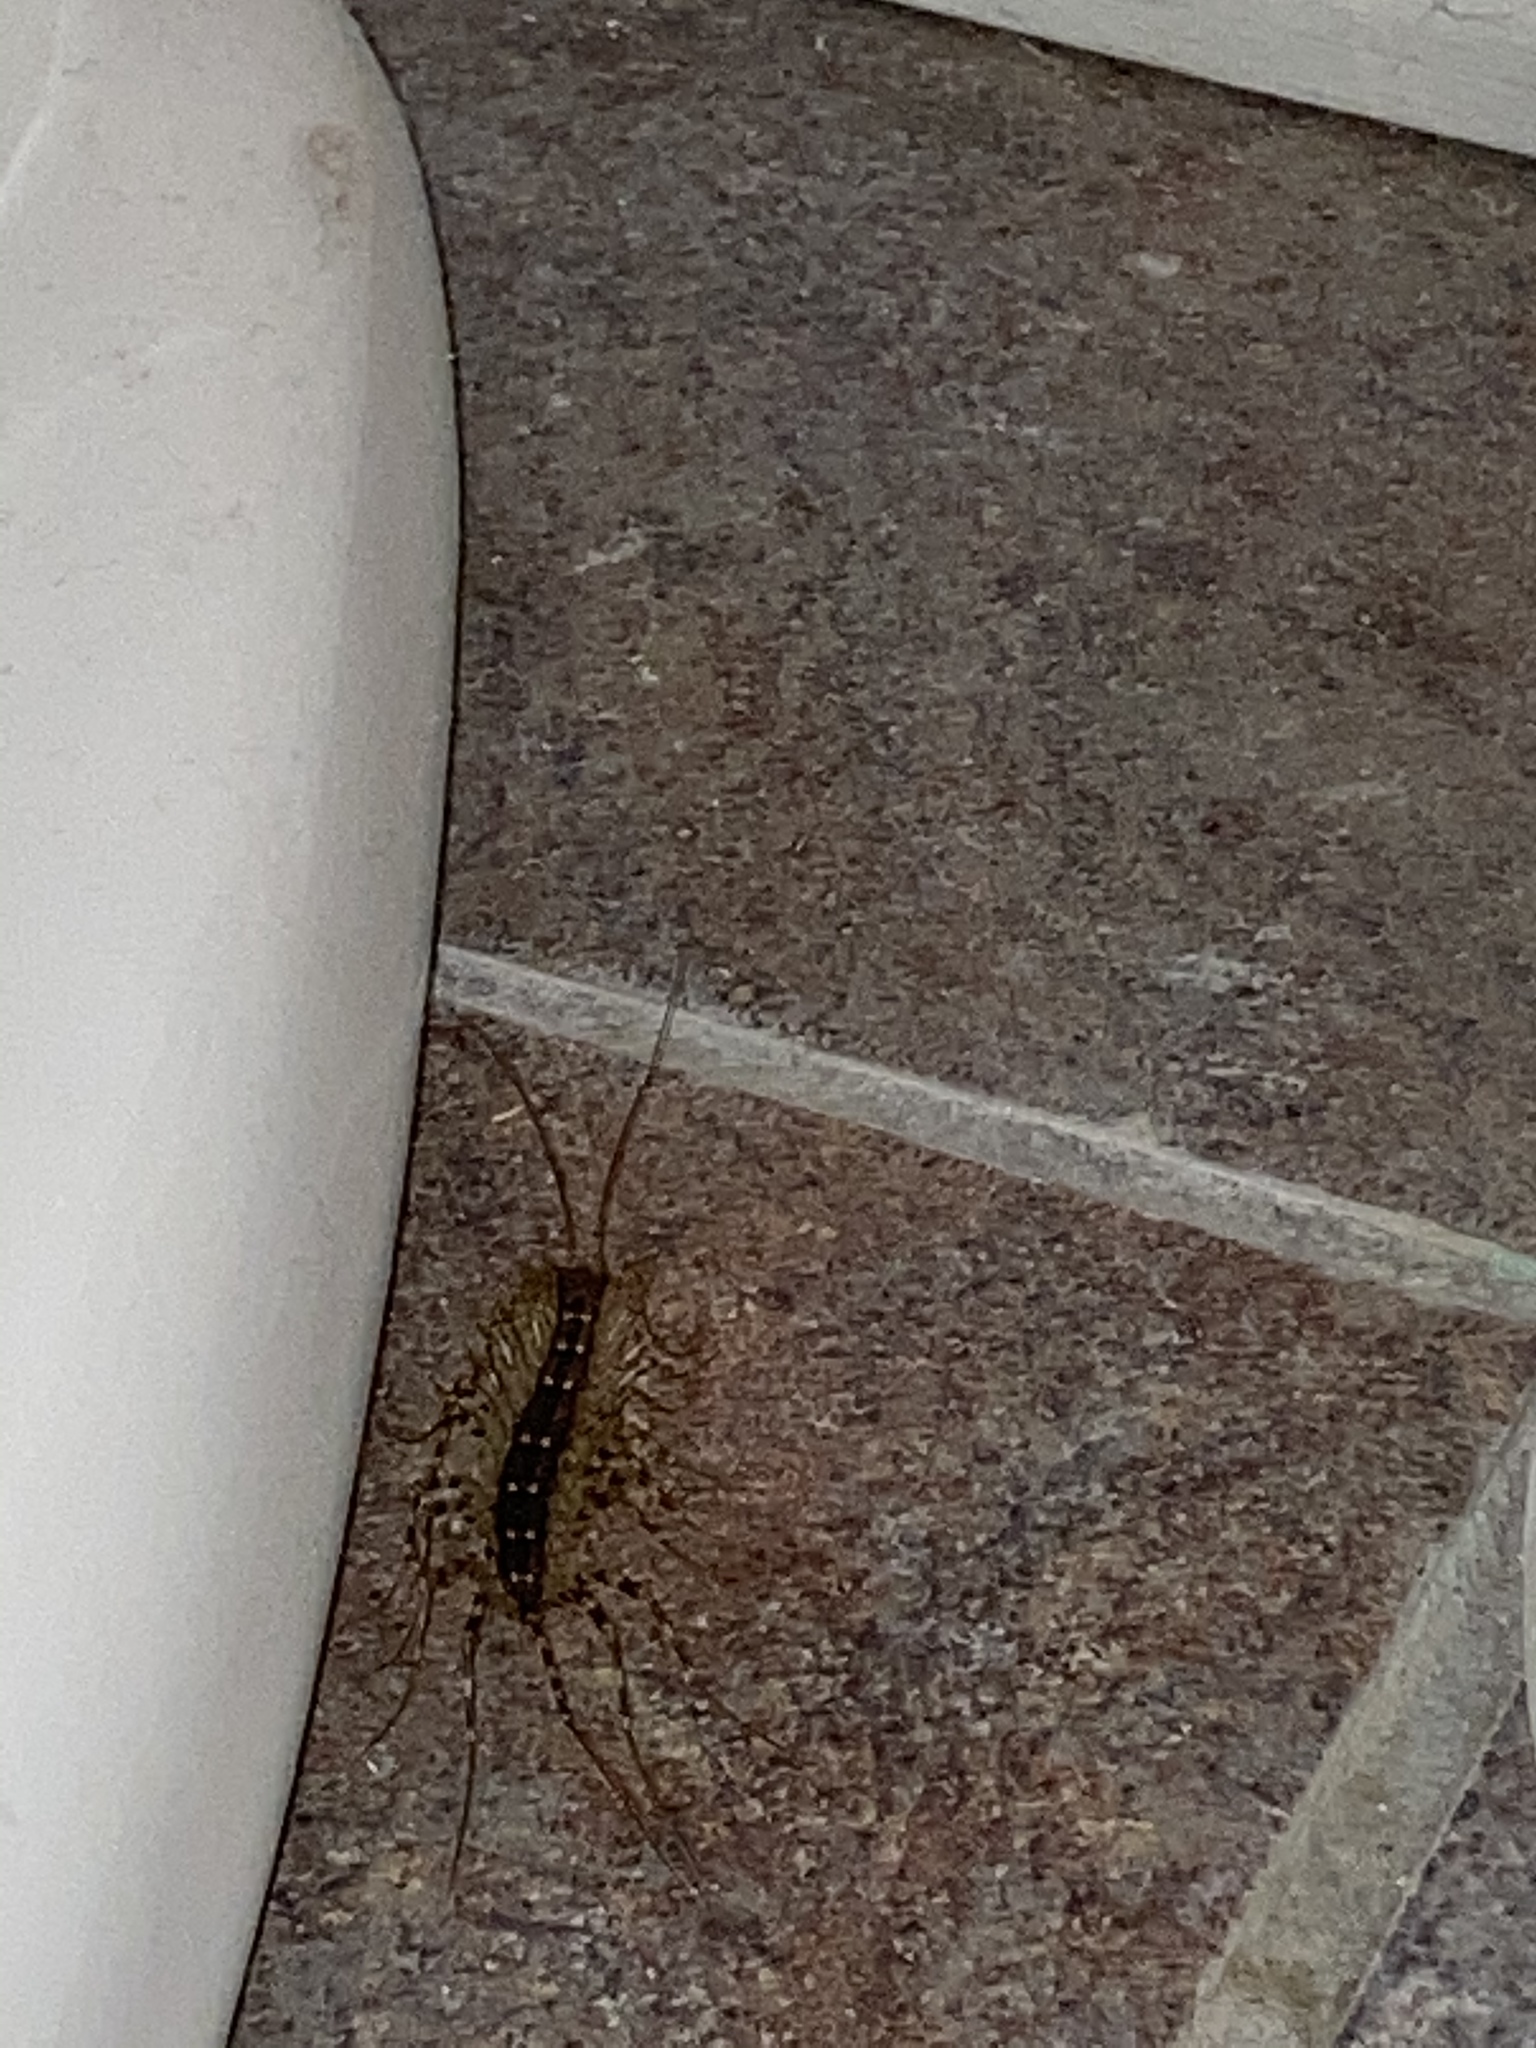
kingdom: Animalia
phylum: Arthropoda
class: Chilopoda
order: Scutigeromorpha
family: Scutigeridae
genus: Scutigera
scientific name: Scutigera coleoptrata
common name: House centipede
